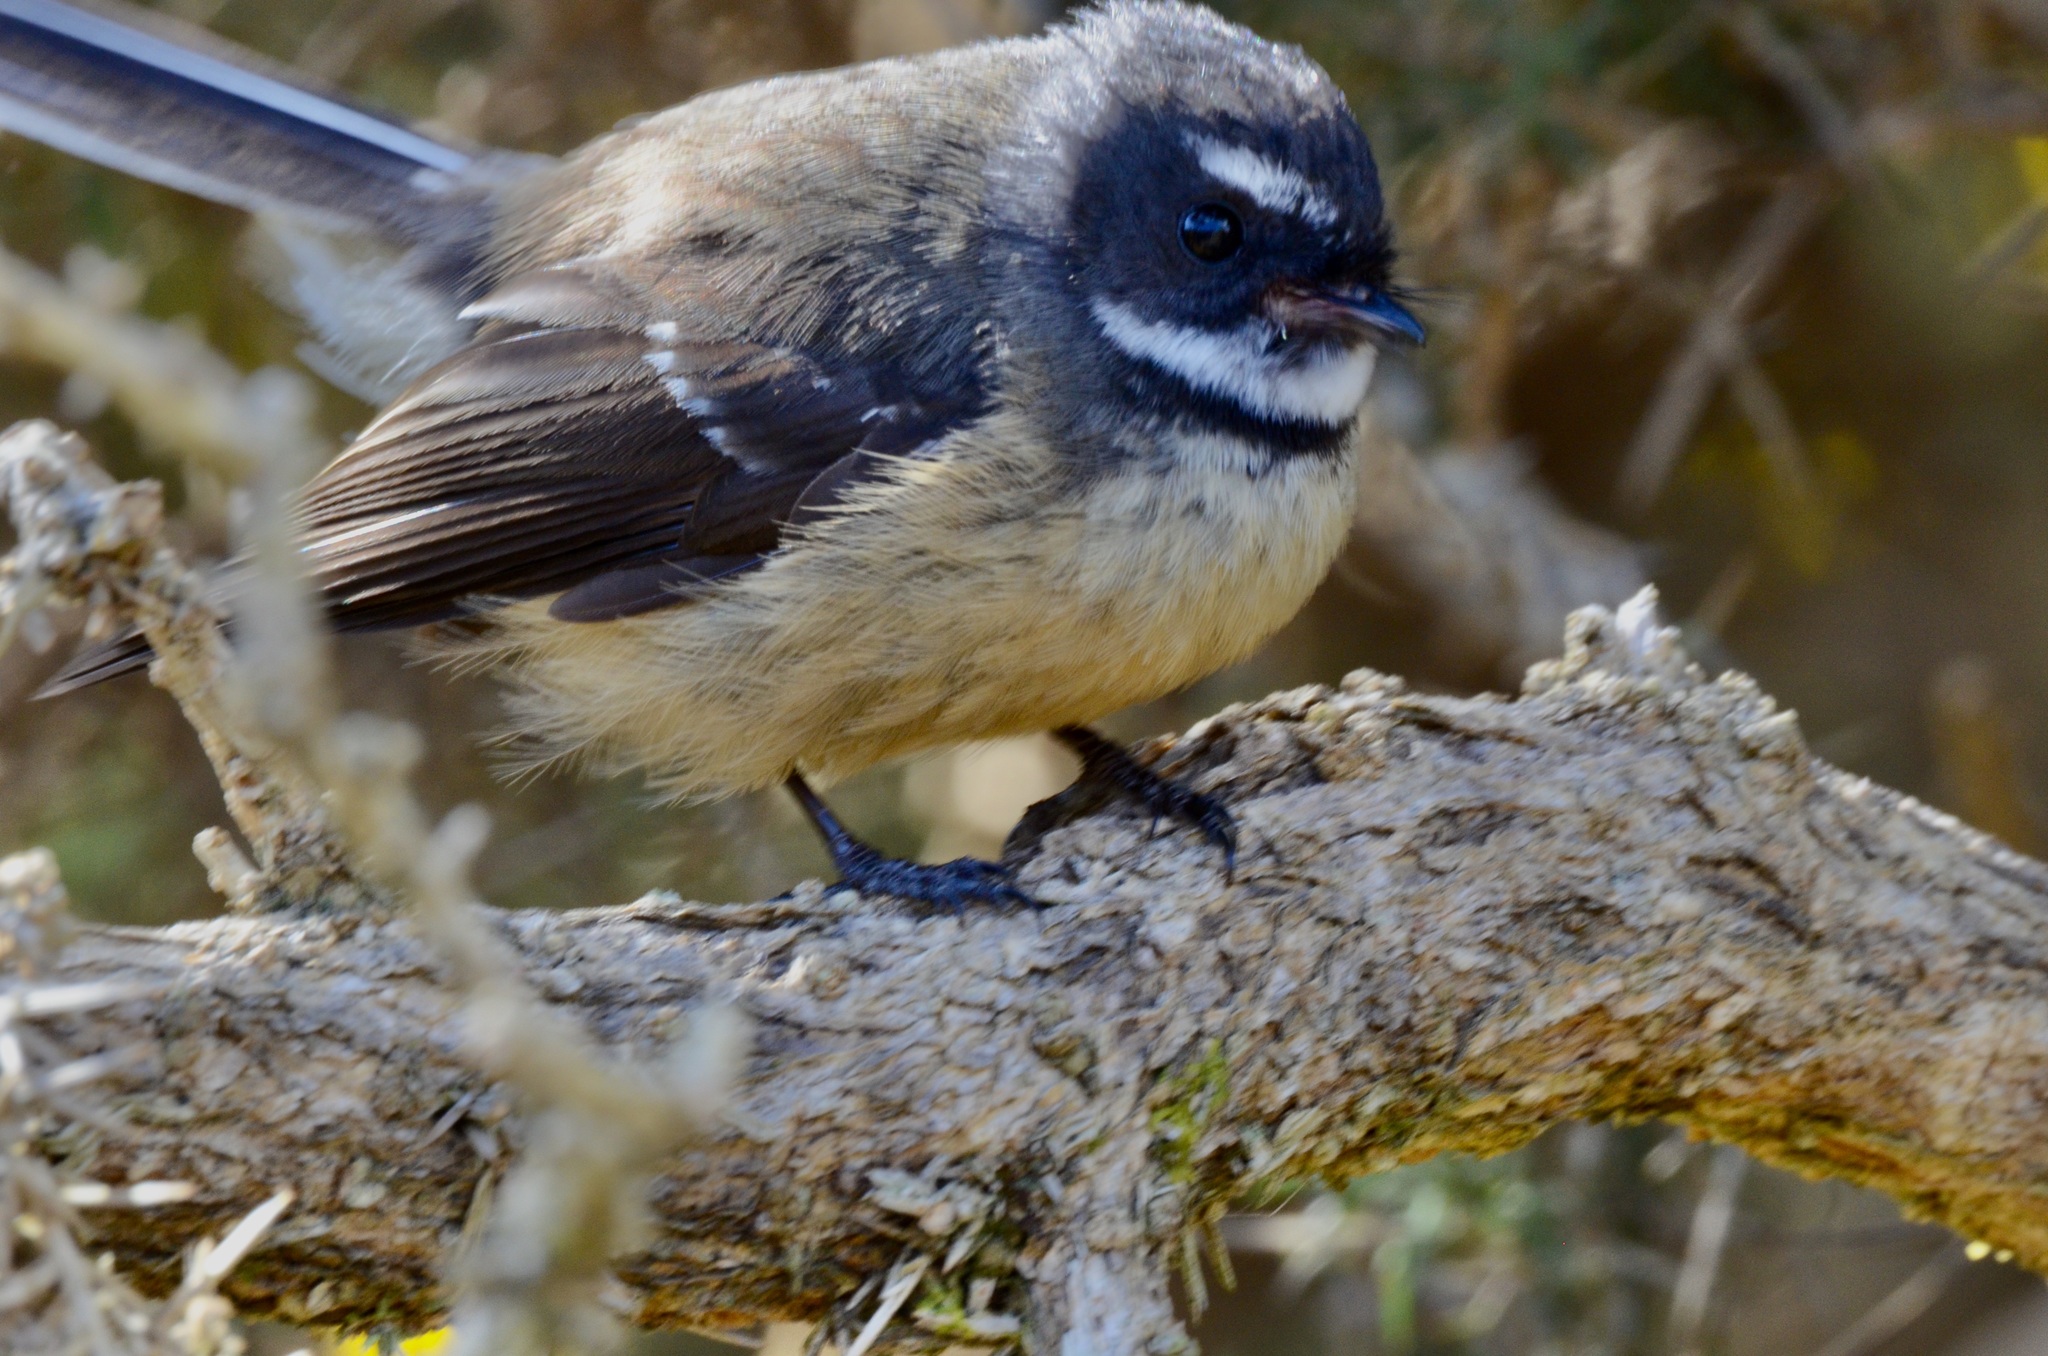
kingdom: Animalia
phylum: Chordata
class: Aves
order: Passeriformes
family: Rhipiduridae
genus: Rhipidura
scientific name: Rhipidura fuliginosa
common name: New zealand fantail
